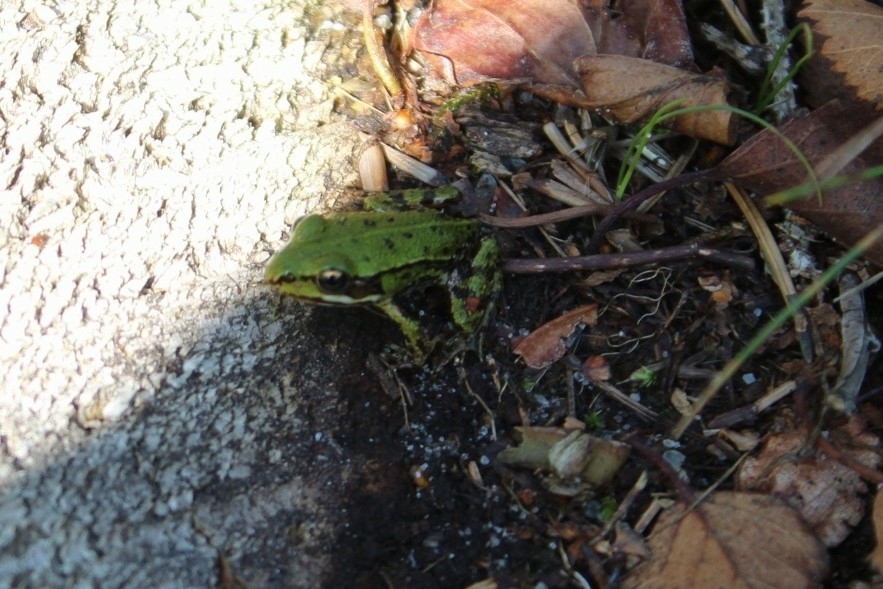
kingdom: Animalia
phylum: Chordata
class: Amphibia
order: Anura
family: Ranidae
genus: Pelophylax
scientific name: Pelophylax
